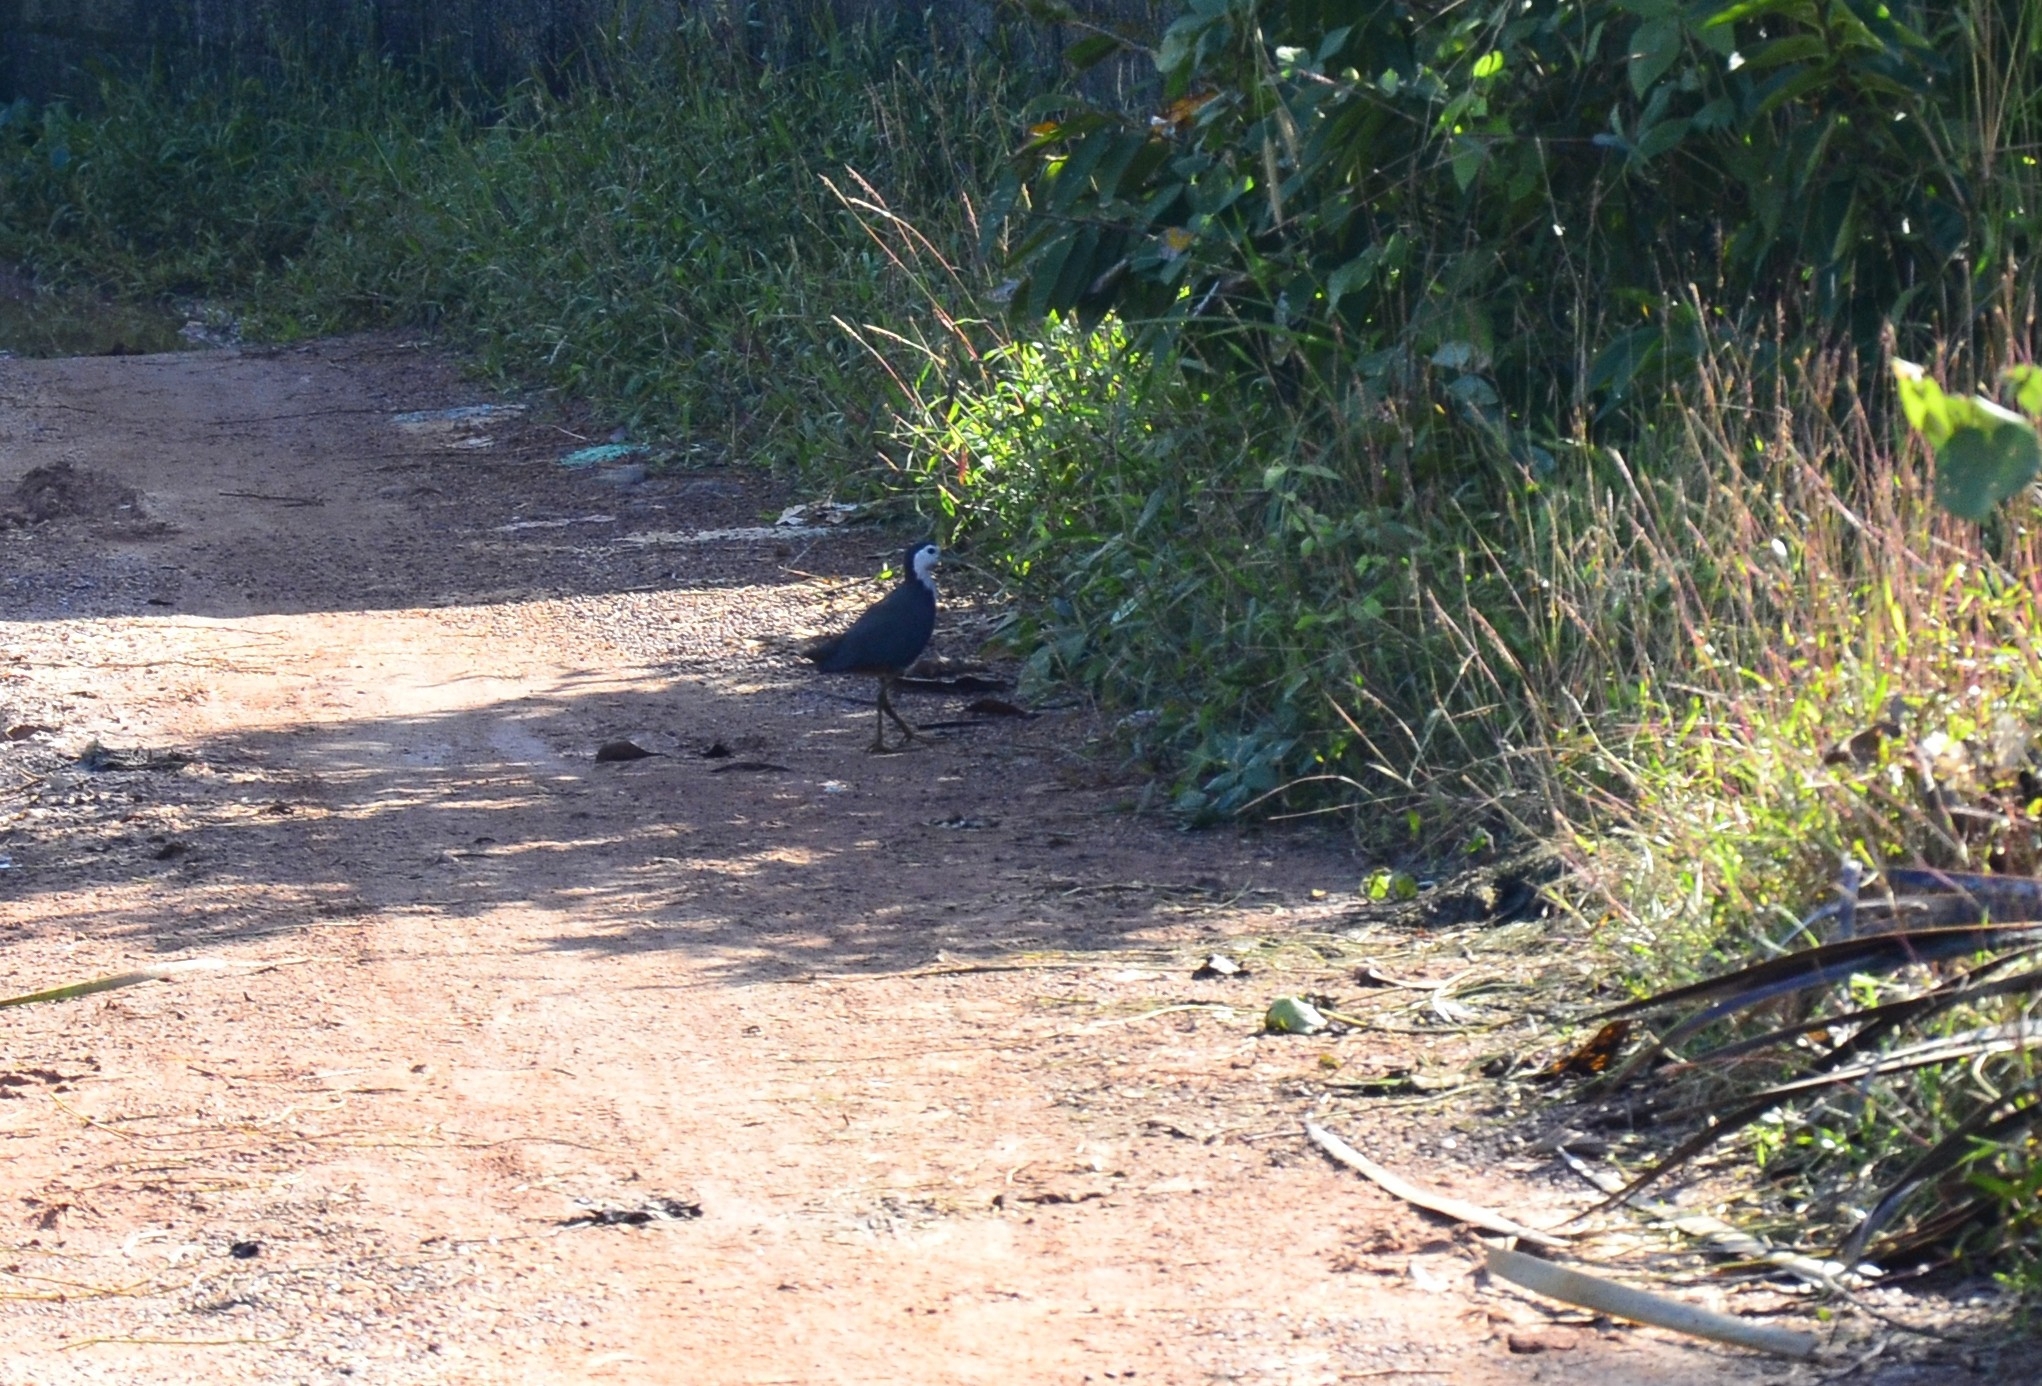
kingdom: Animalia
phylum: Chordata
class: Aves
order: Gruiformes
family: Rallidae
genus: Amaurornis
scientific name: Amaurornis phoenicurus
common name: White-breasted waterhen
